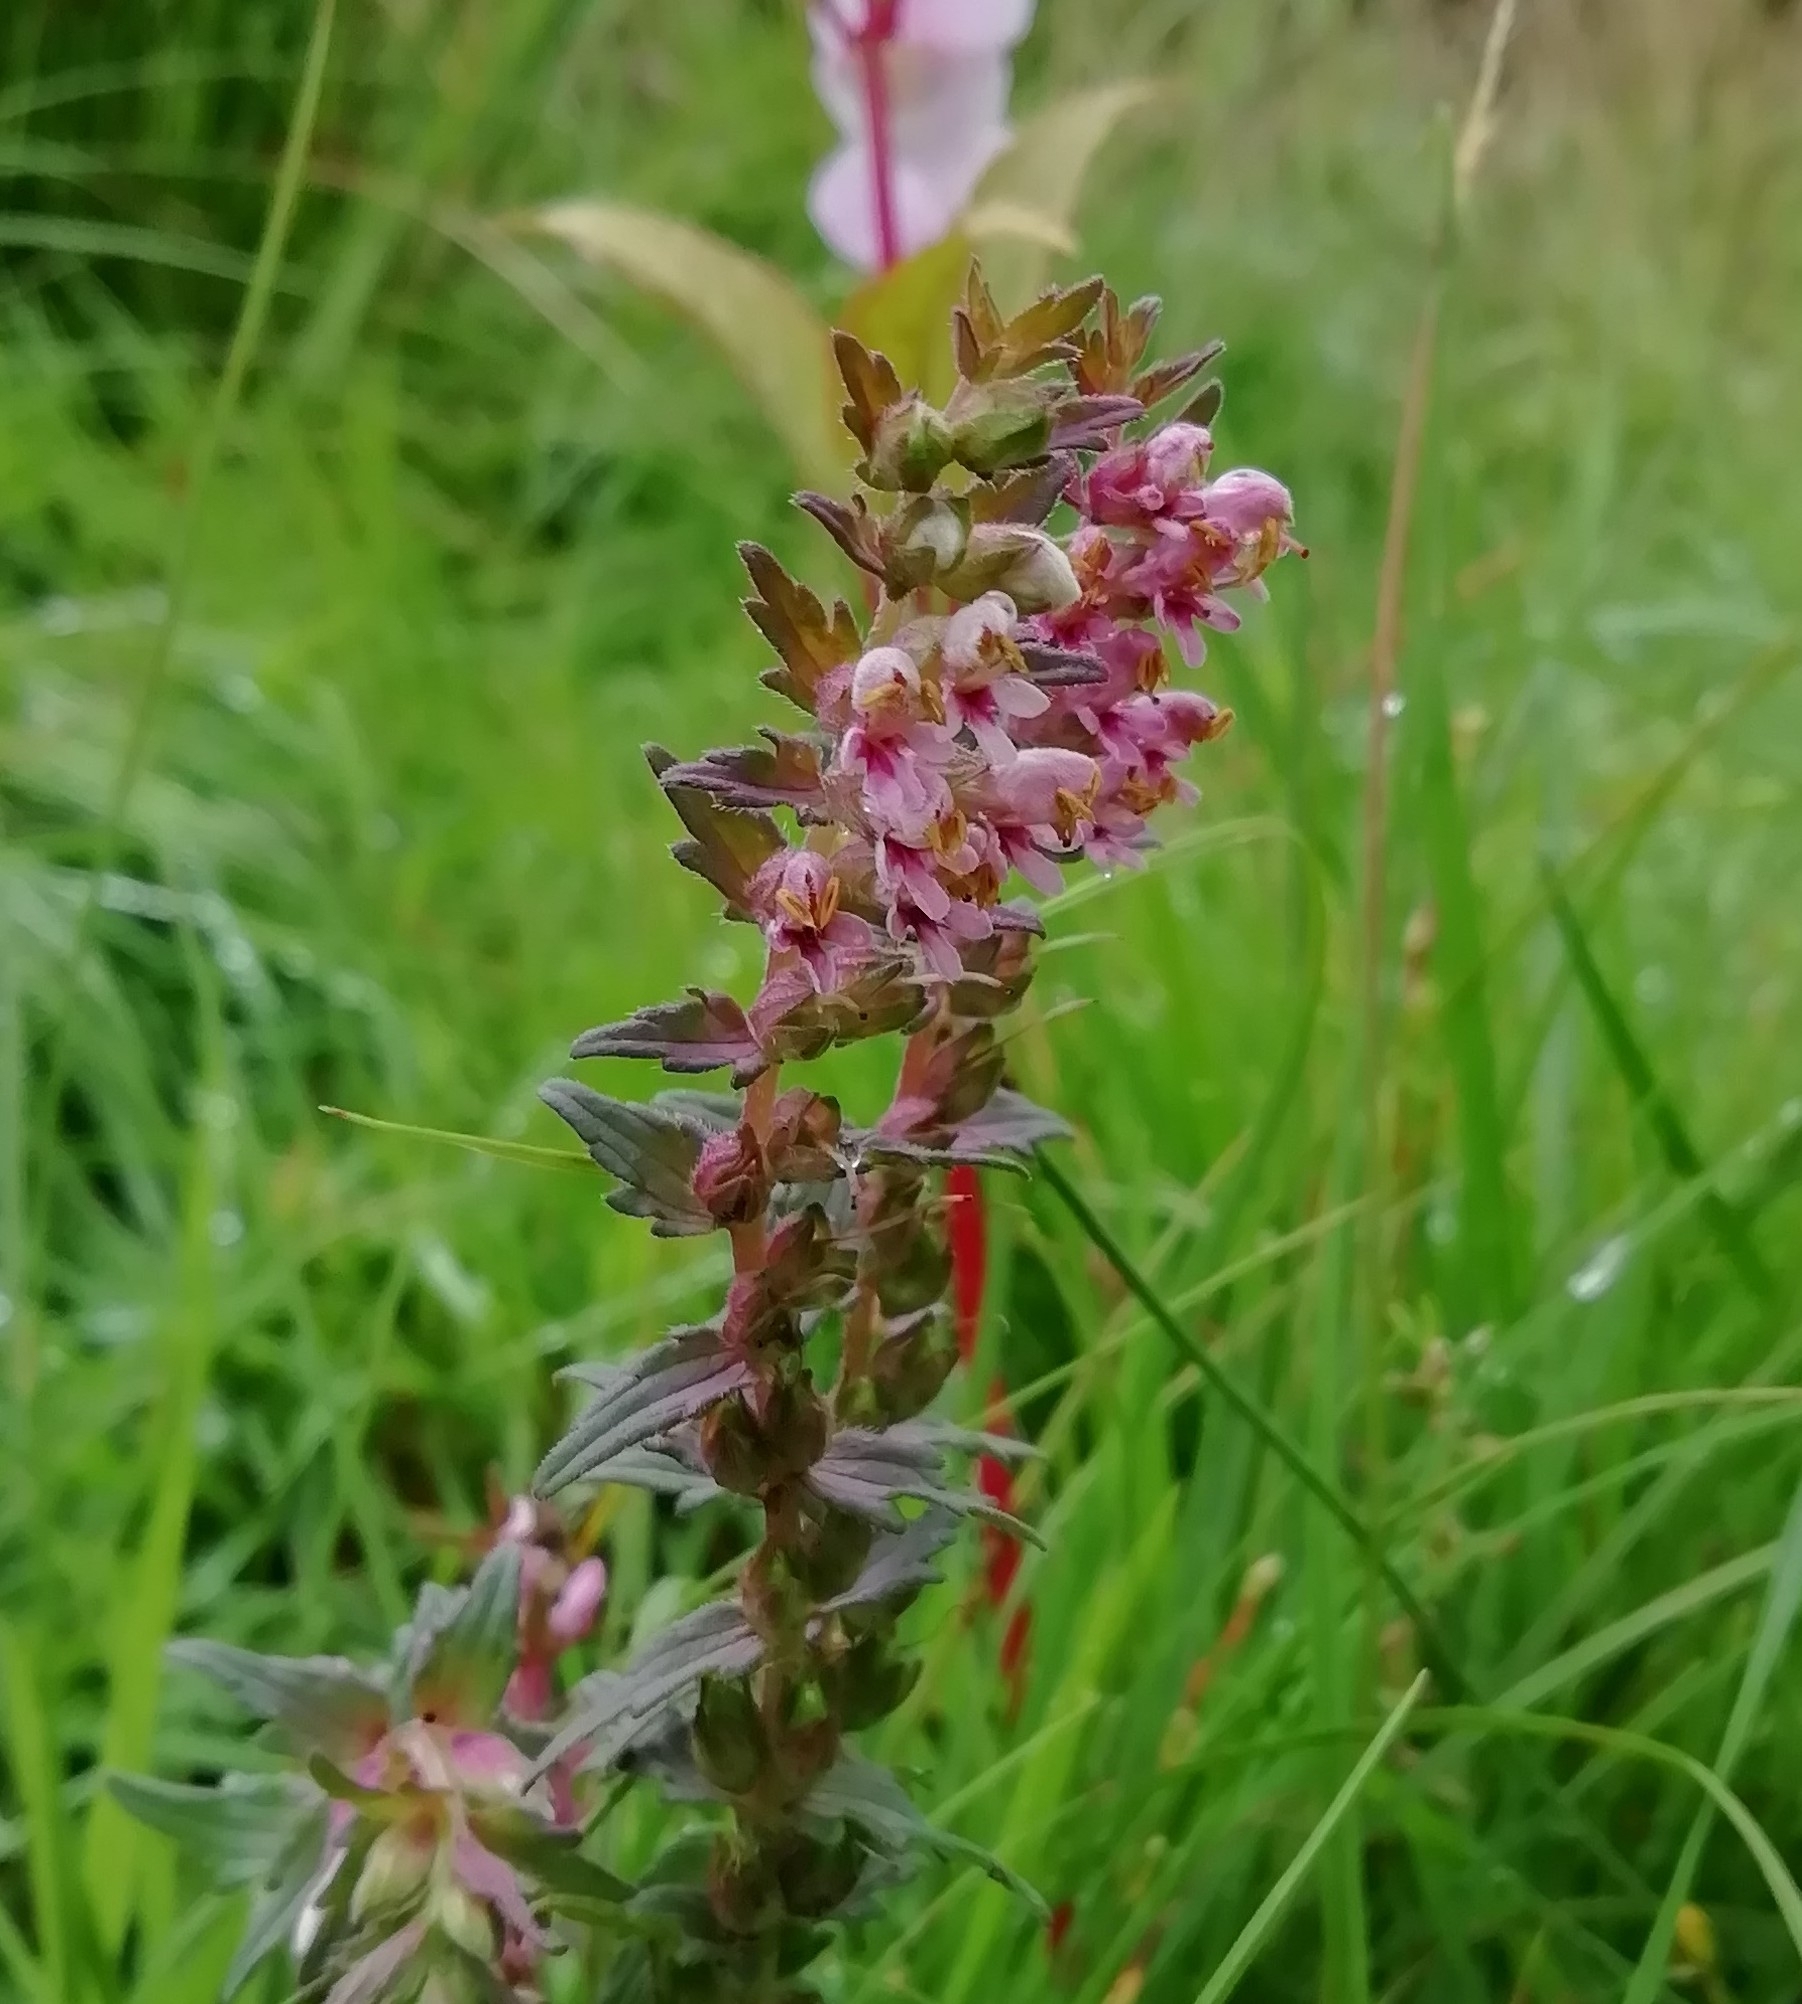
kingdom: Plantae
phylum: Tracheophyta
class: Magnoliopsida
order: Lamiales
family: Orobanchaceae
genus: Odontites
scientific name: Odontites vernus
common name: Red bartsia
